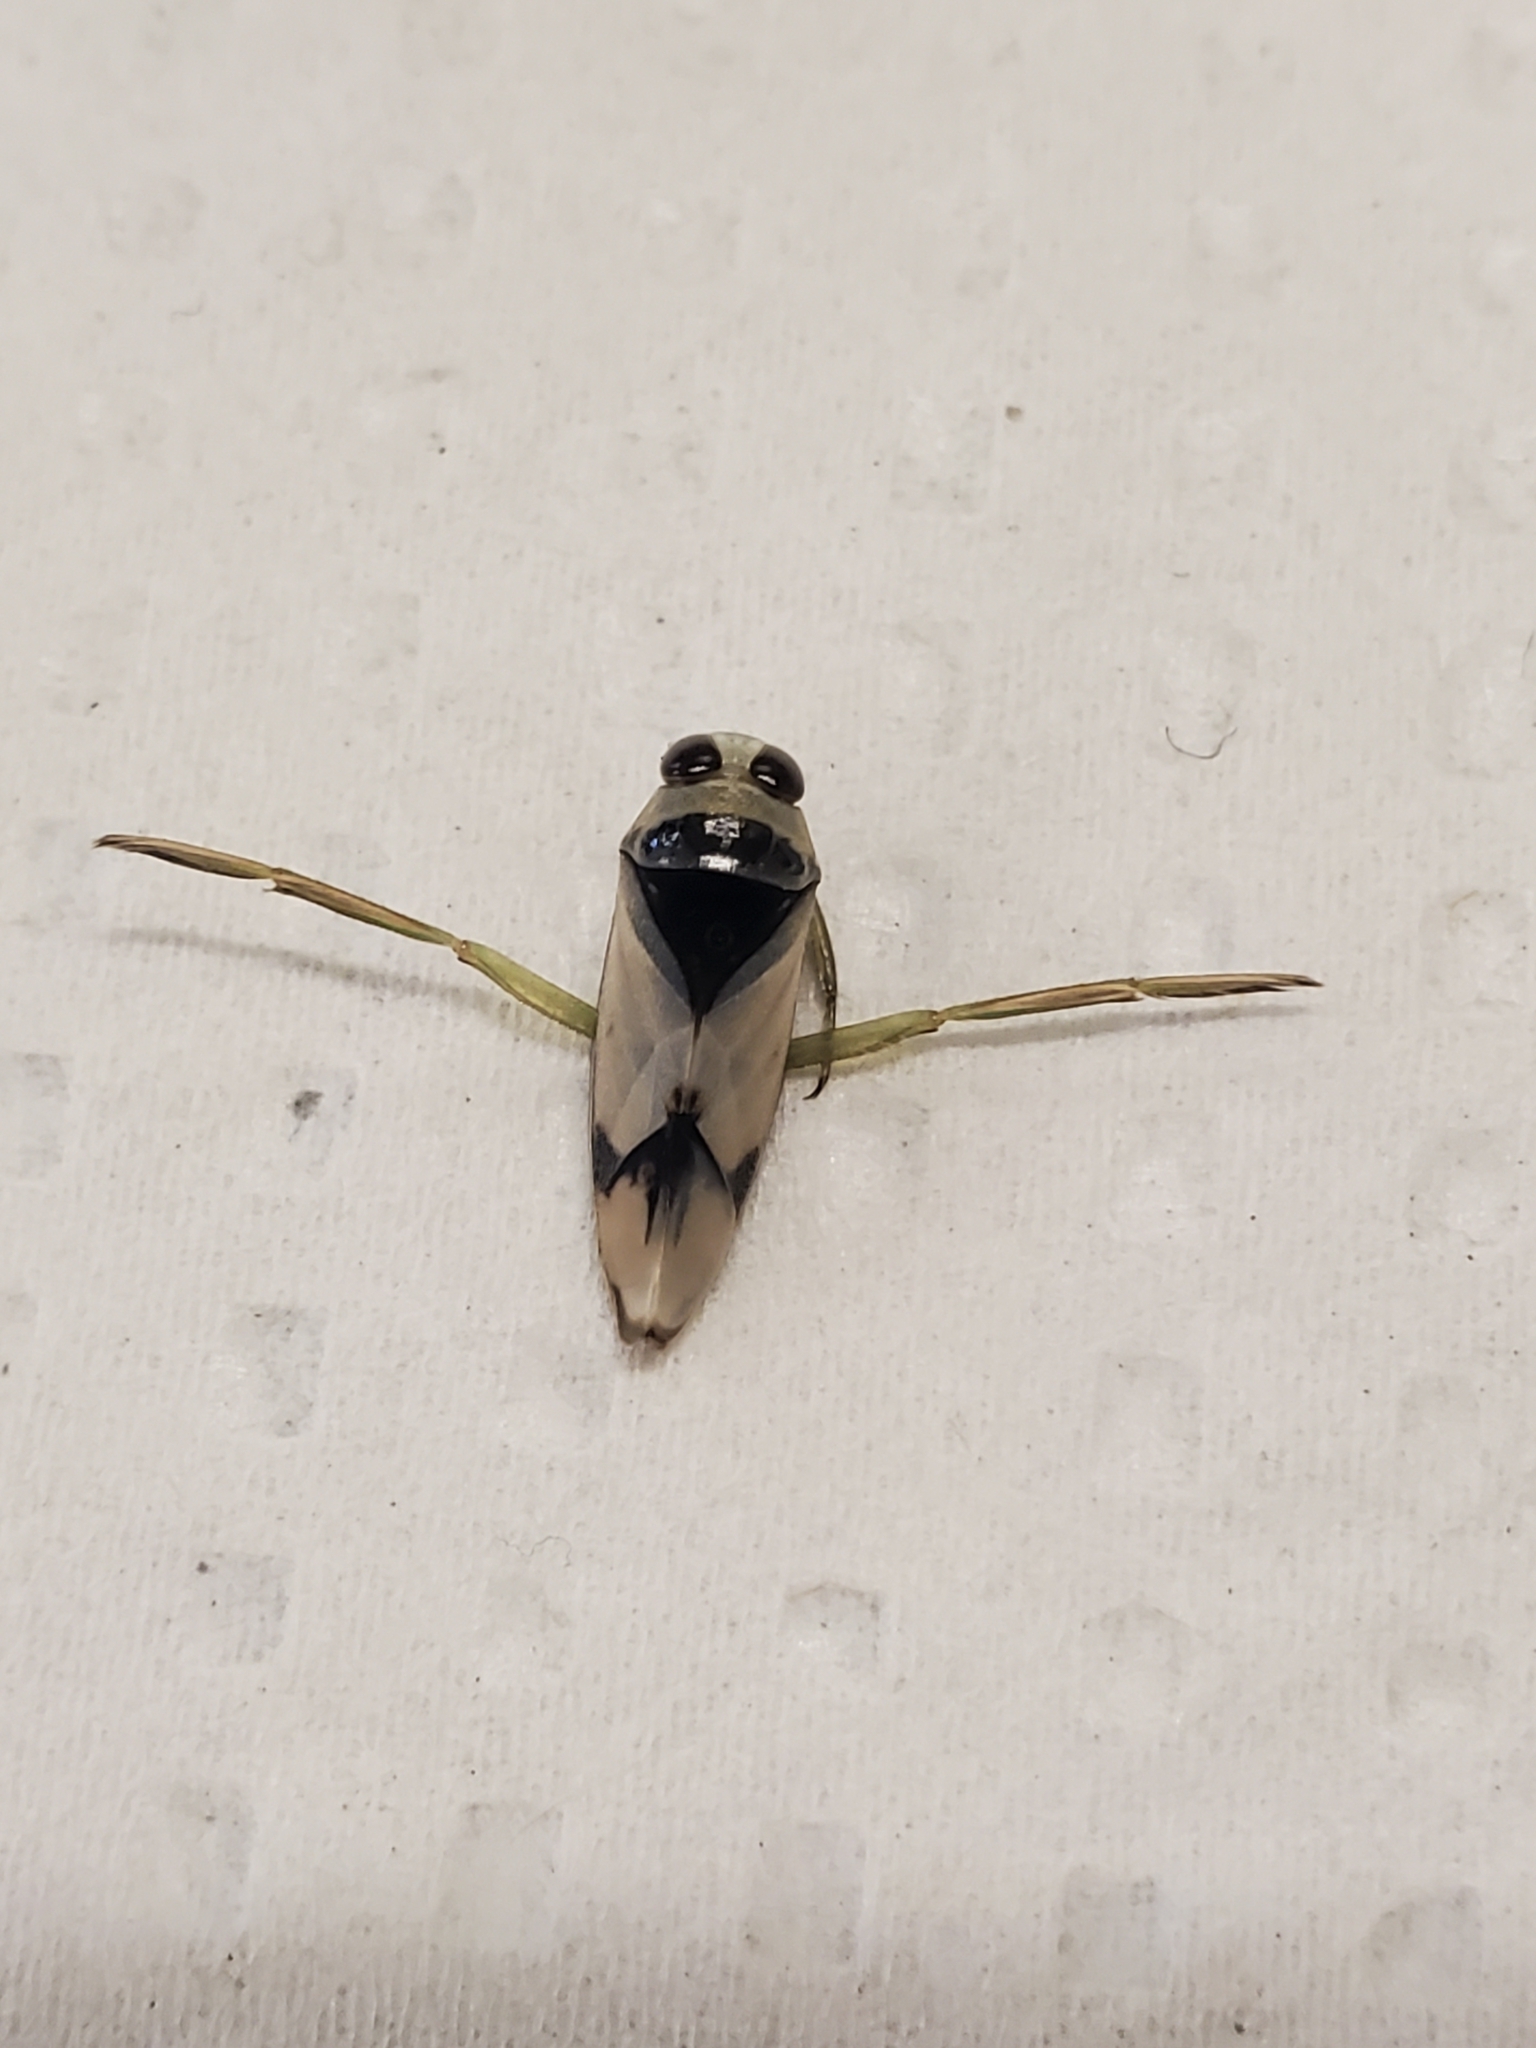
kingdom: Animalia
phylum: Arthropoda
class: Insecta
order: Hemiptera
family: Notonectidae
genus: Notonecta
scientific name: Notonecta undulata
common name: Grousewinged backswimmer
